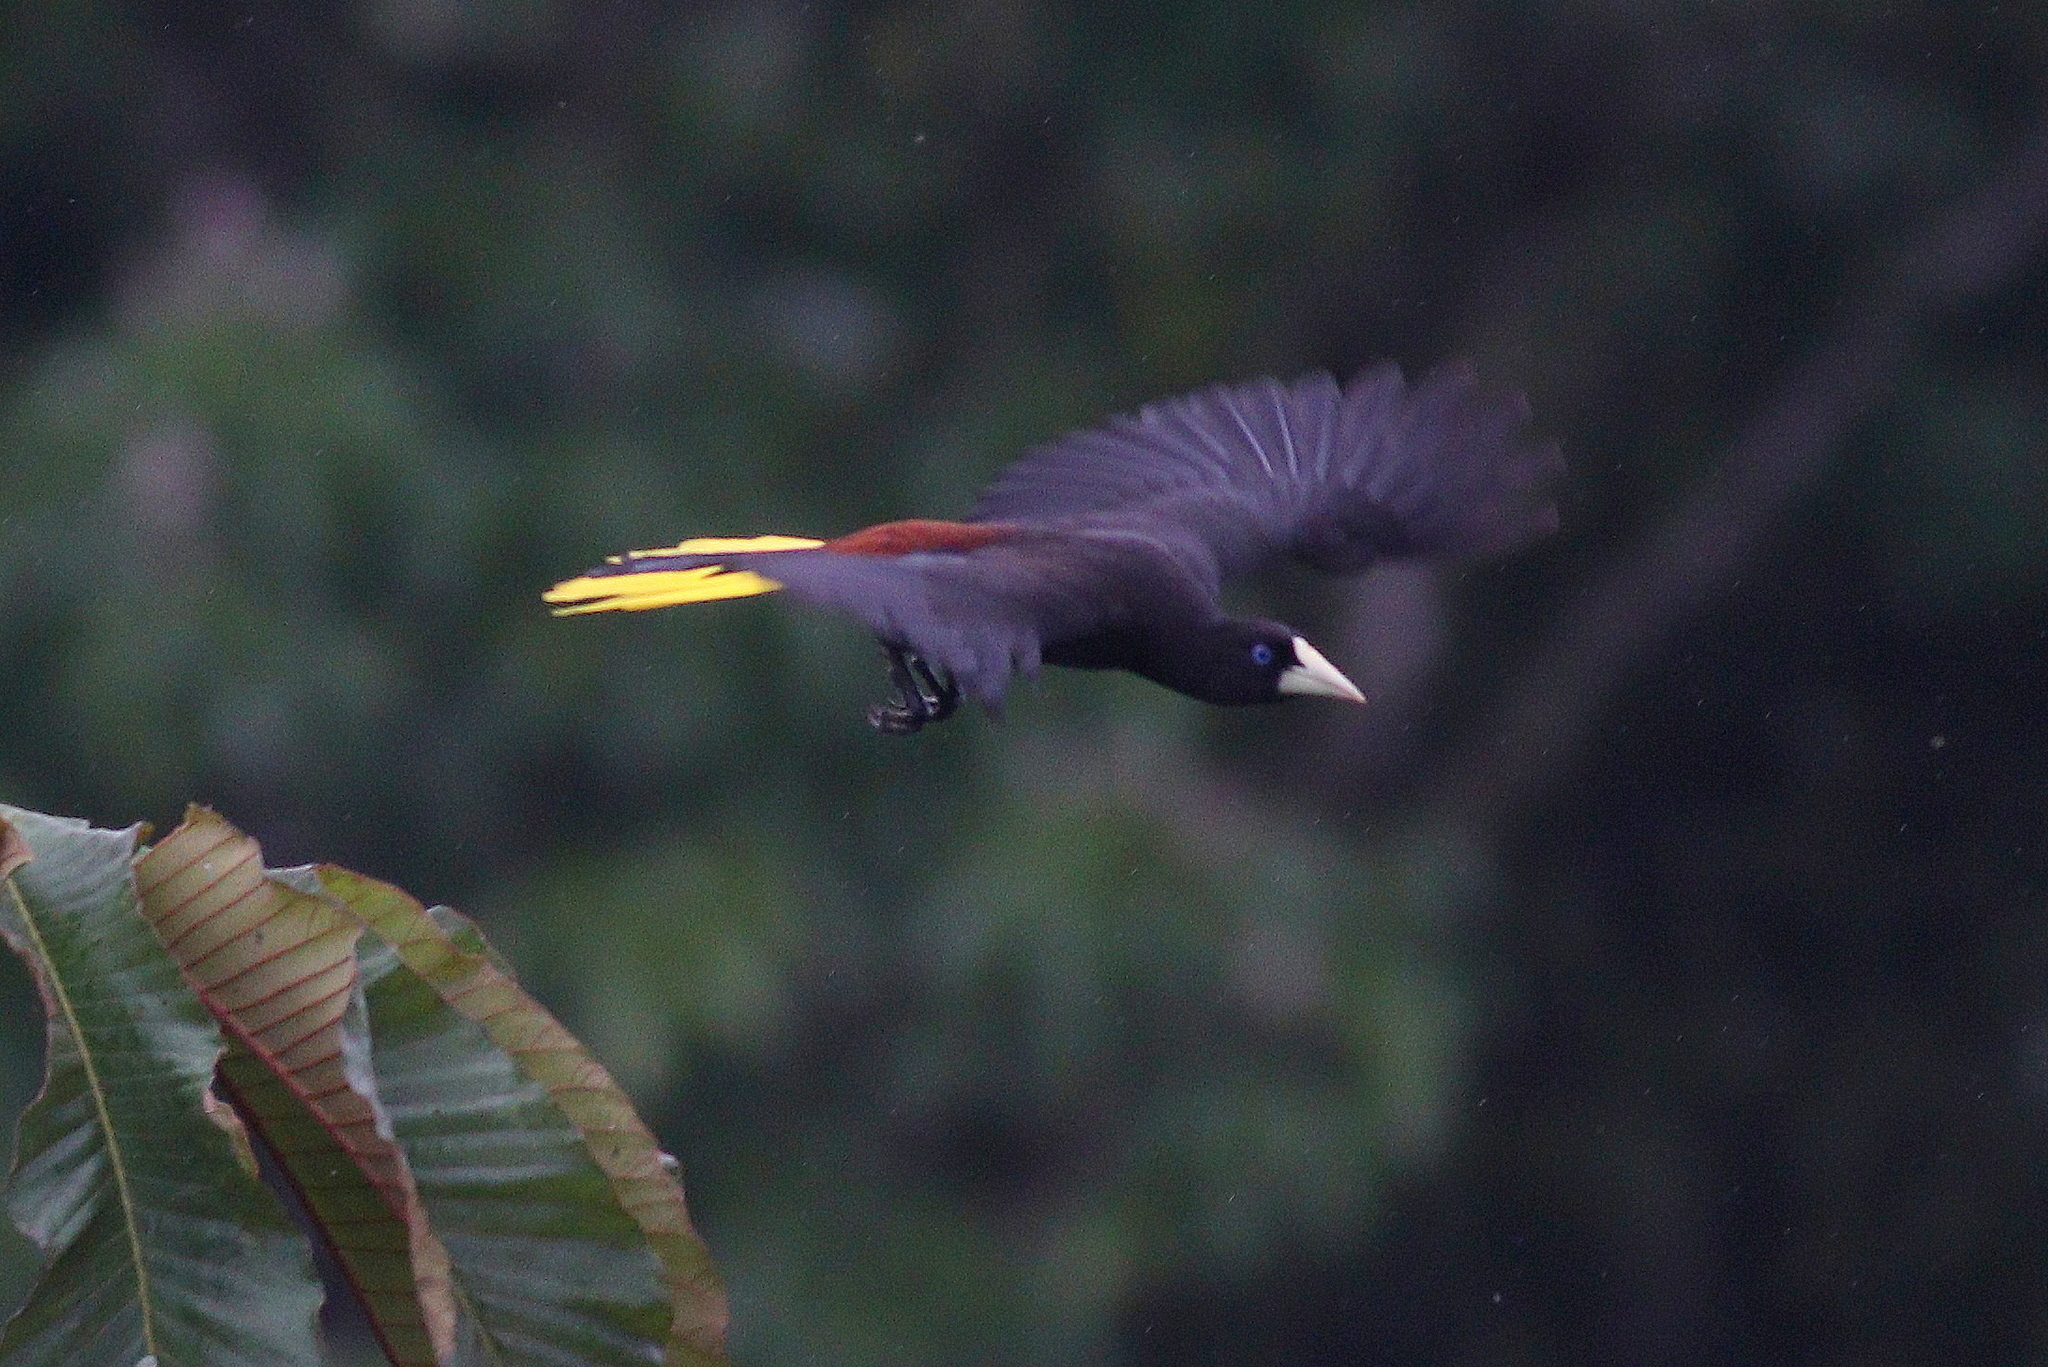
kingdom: Animalia
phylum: Chordata
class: Aves
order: Passeriformes
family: Icteridae
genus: Psarocolius
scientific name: Psarocolius decumanus
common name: Crested oropendola
